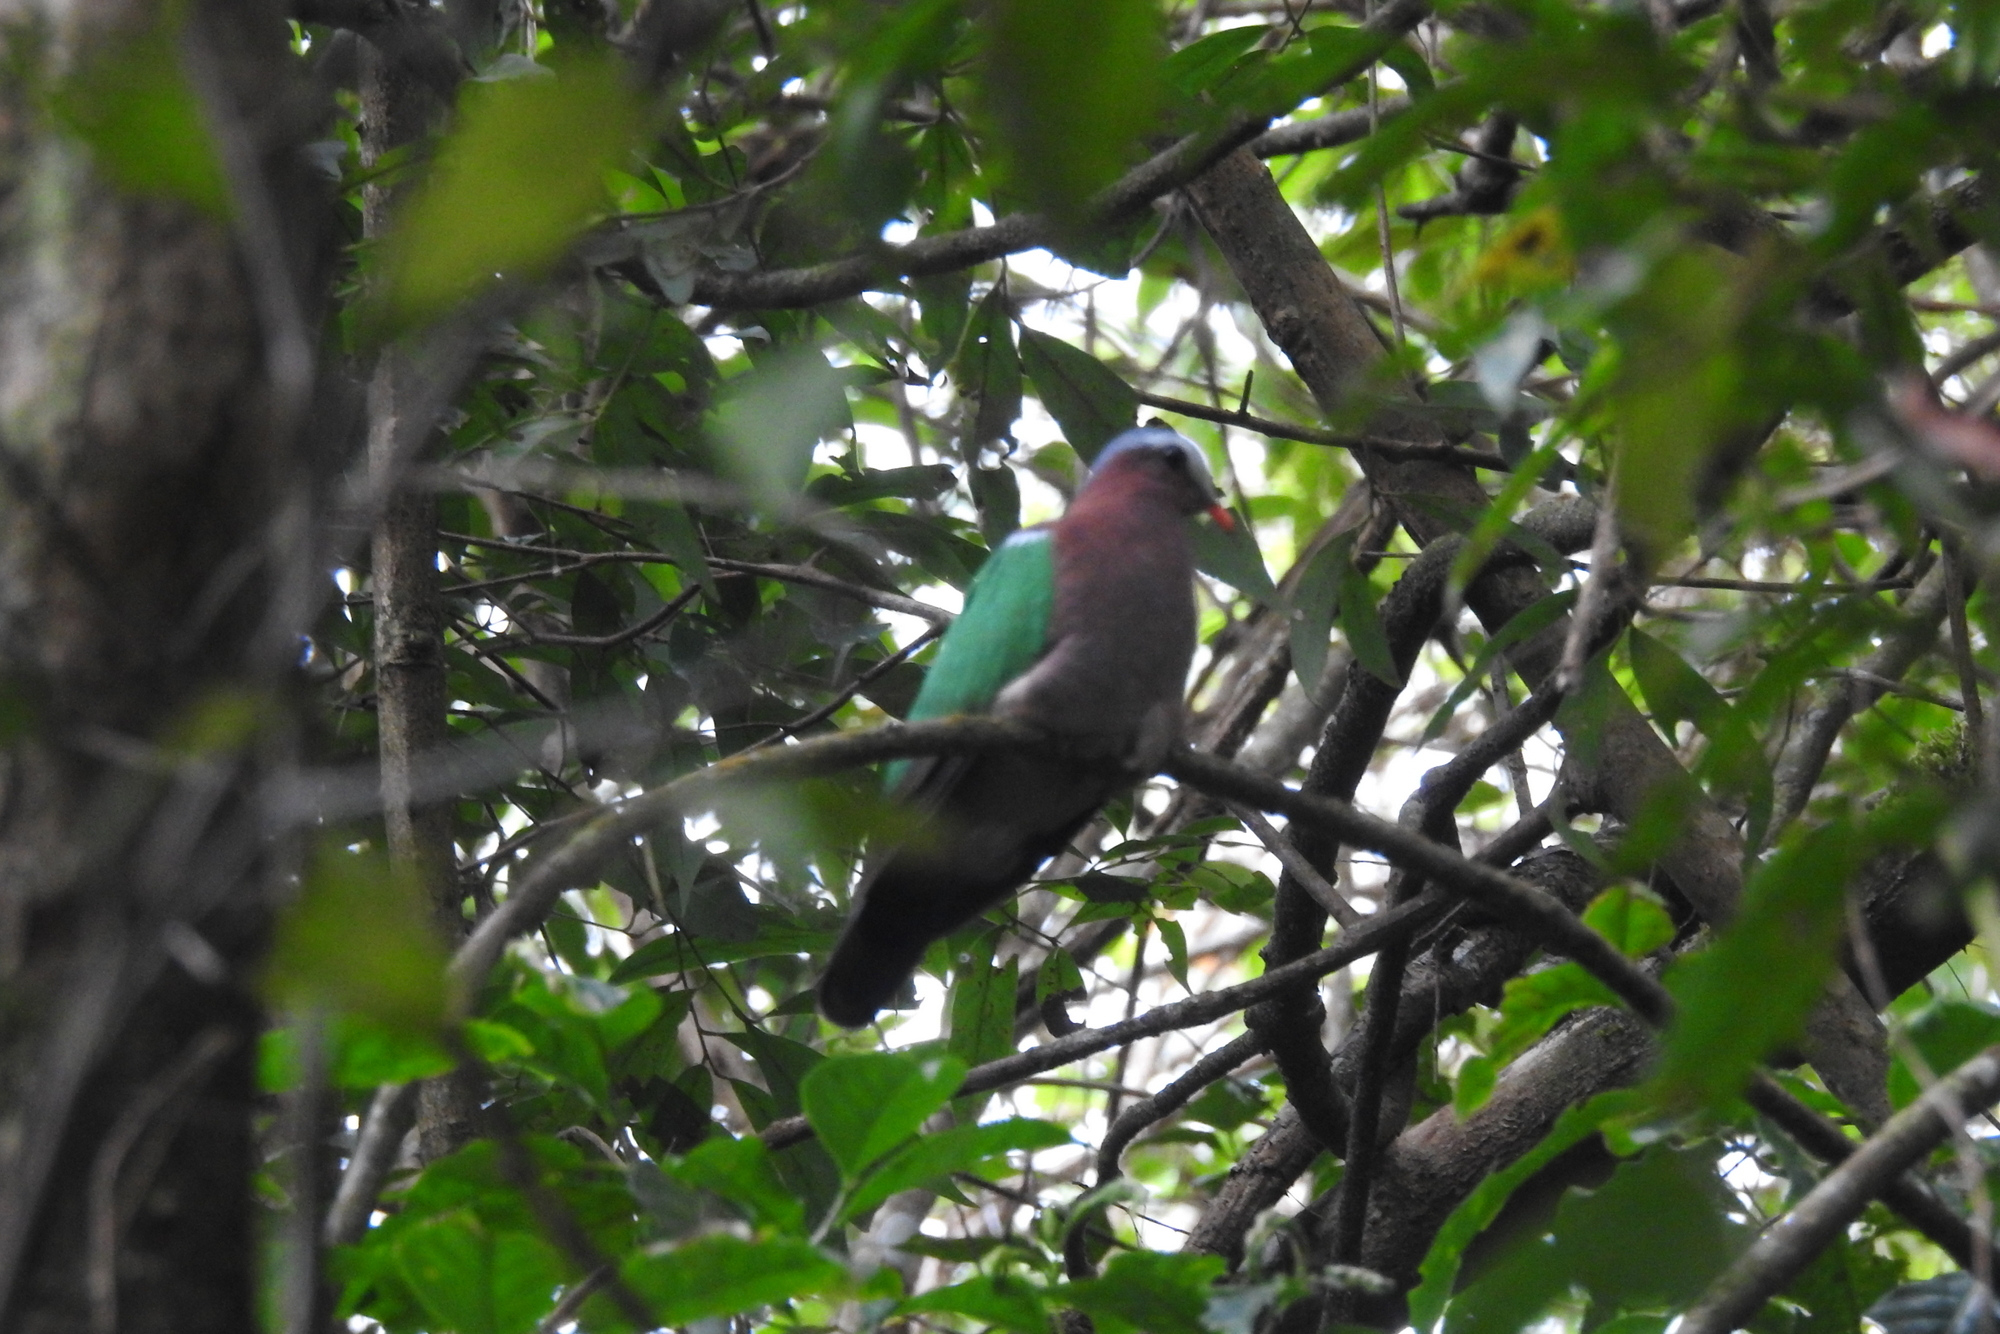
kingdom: Animalia
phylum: Chordata
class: Aves
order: Columbiformes
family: Columbidae
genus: Chalcophaps
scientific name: Chalcophaps indica
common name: Common emerald dove
